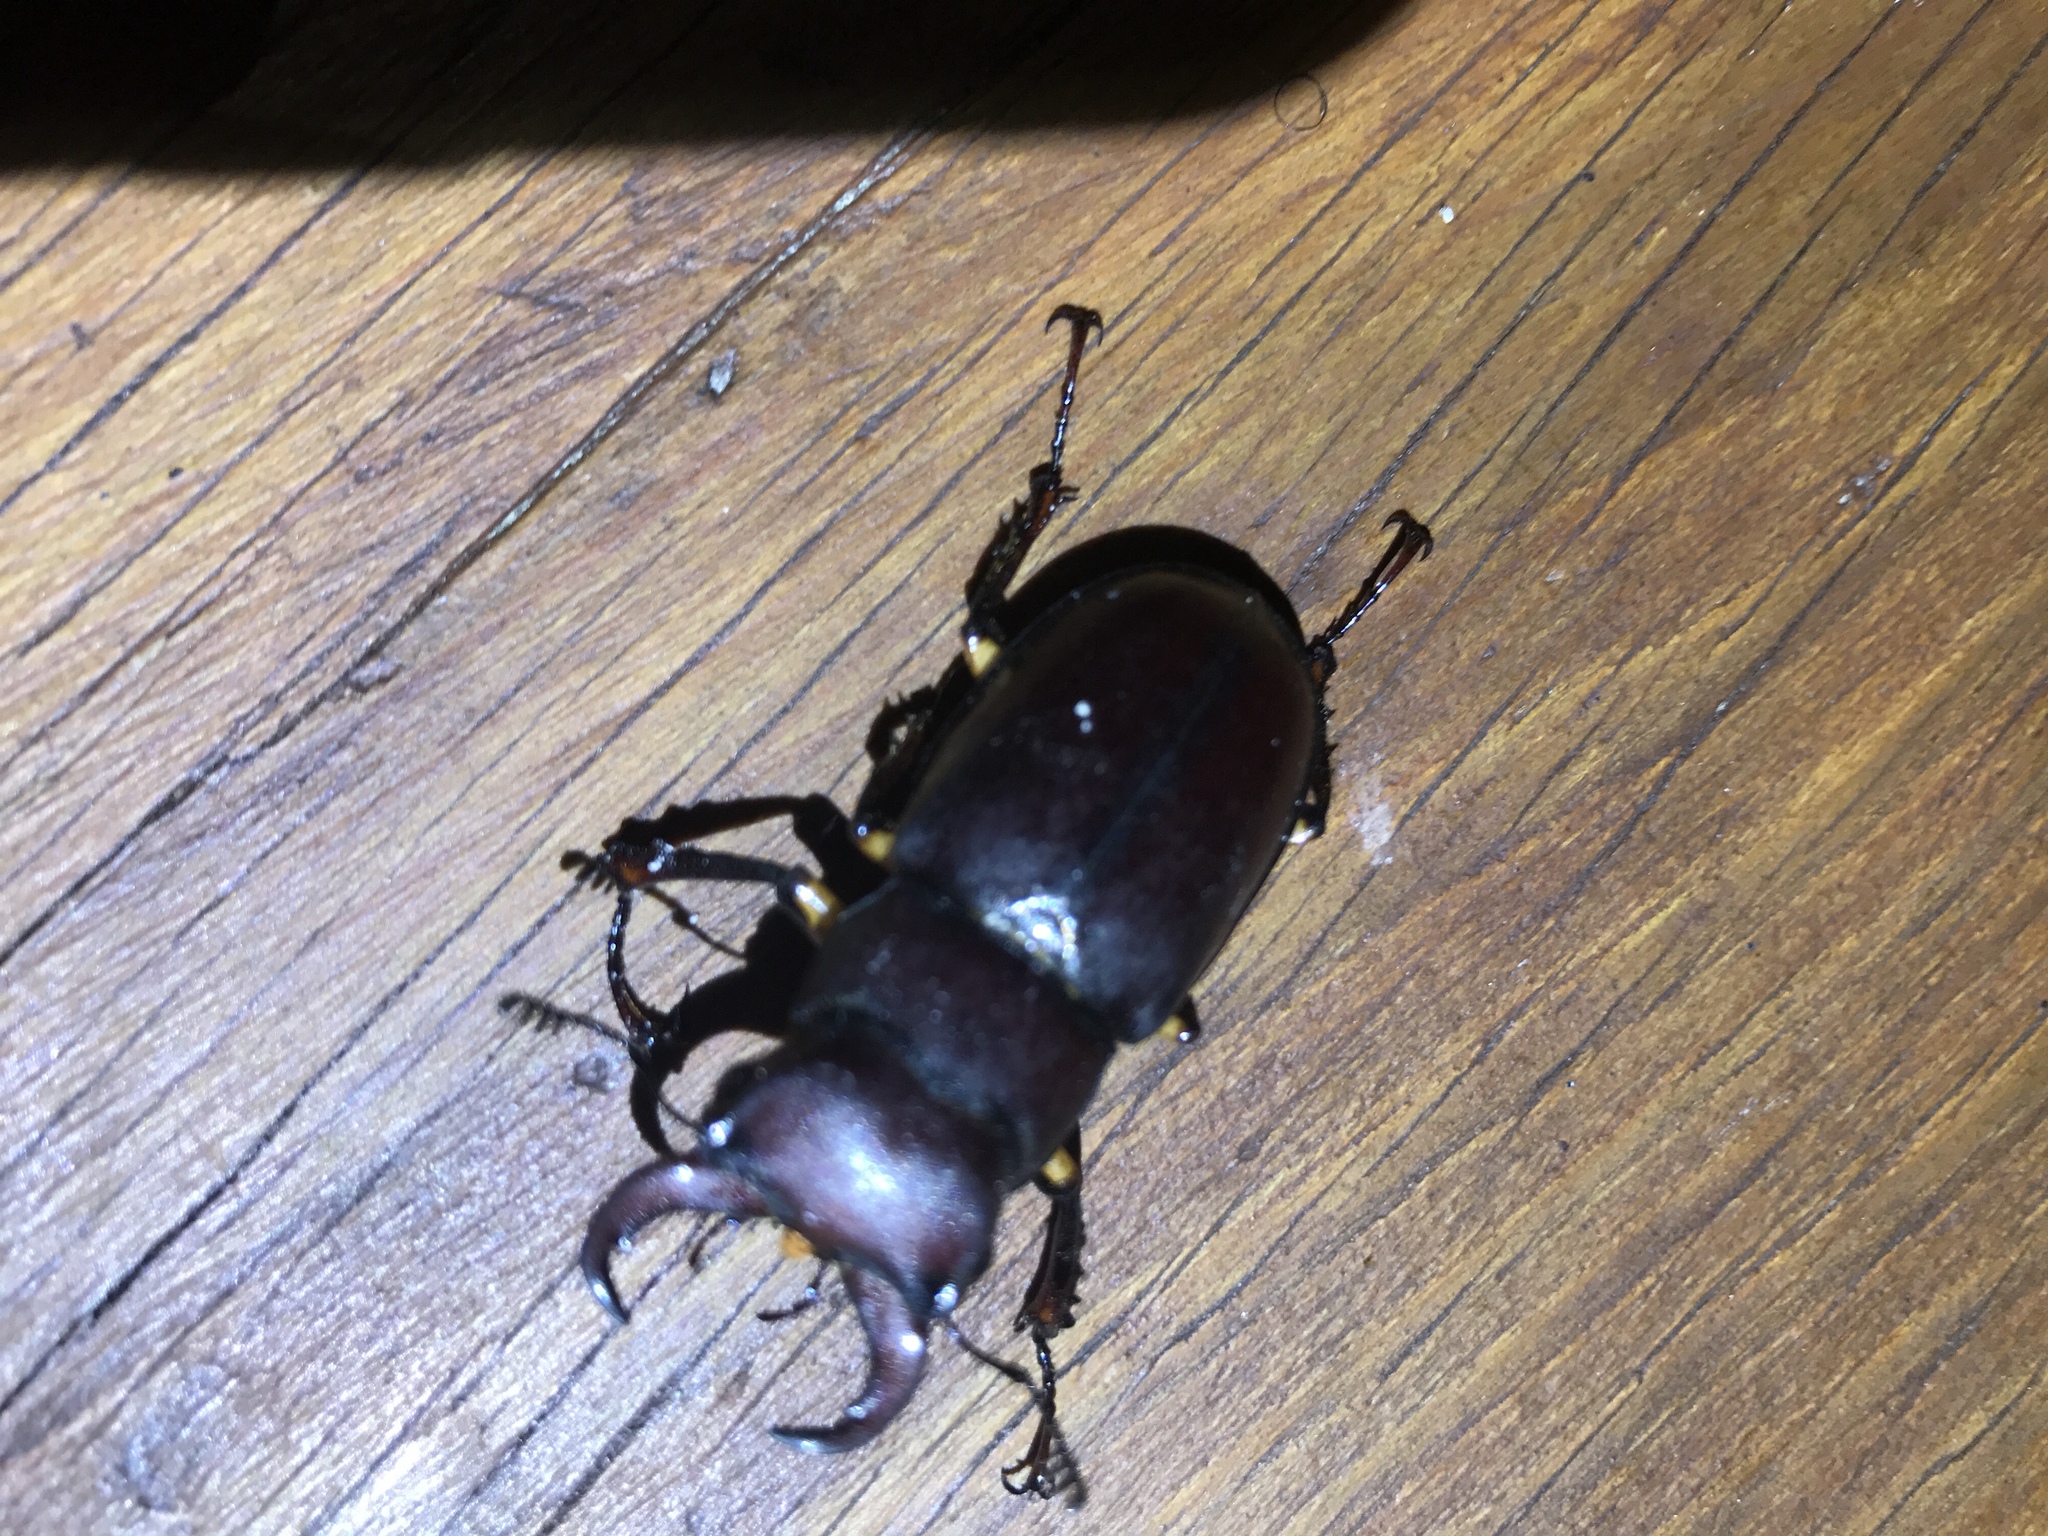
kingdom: Animalia
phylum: Arthropoda
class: Insecta
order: Coleoptera
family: Lucanidae
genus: Lucanus
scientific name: Lucanus capreolus
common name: Stag beetle
